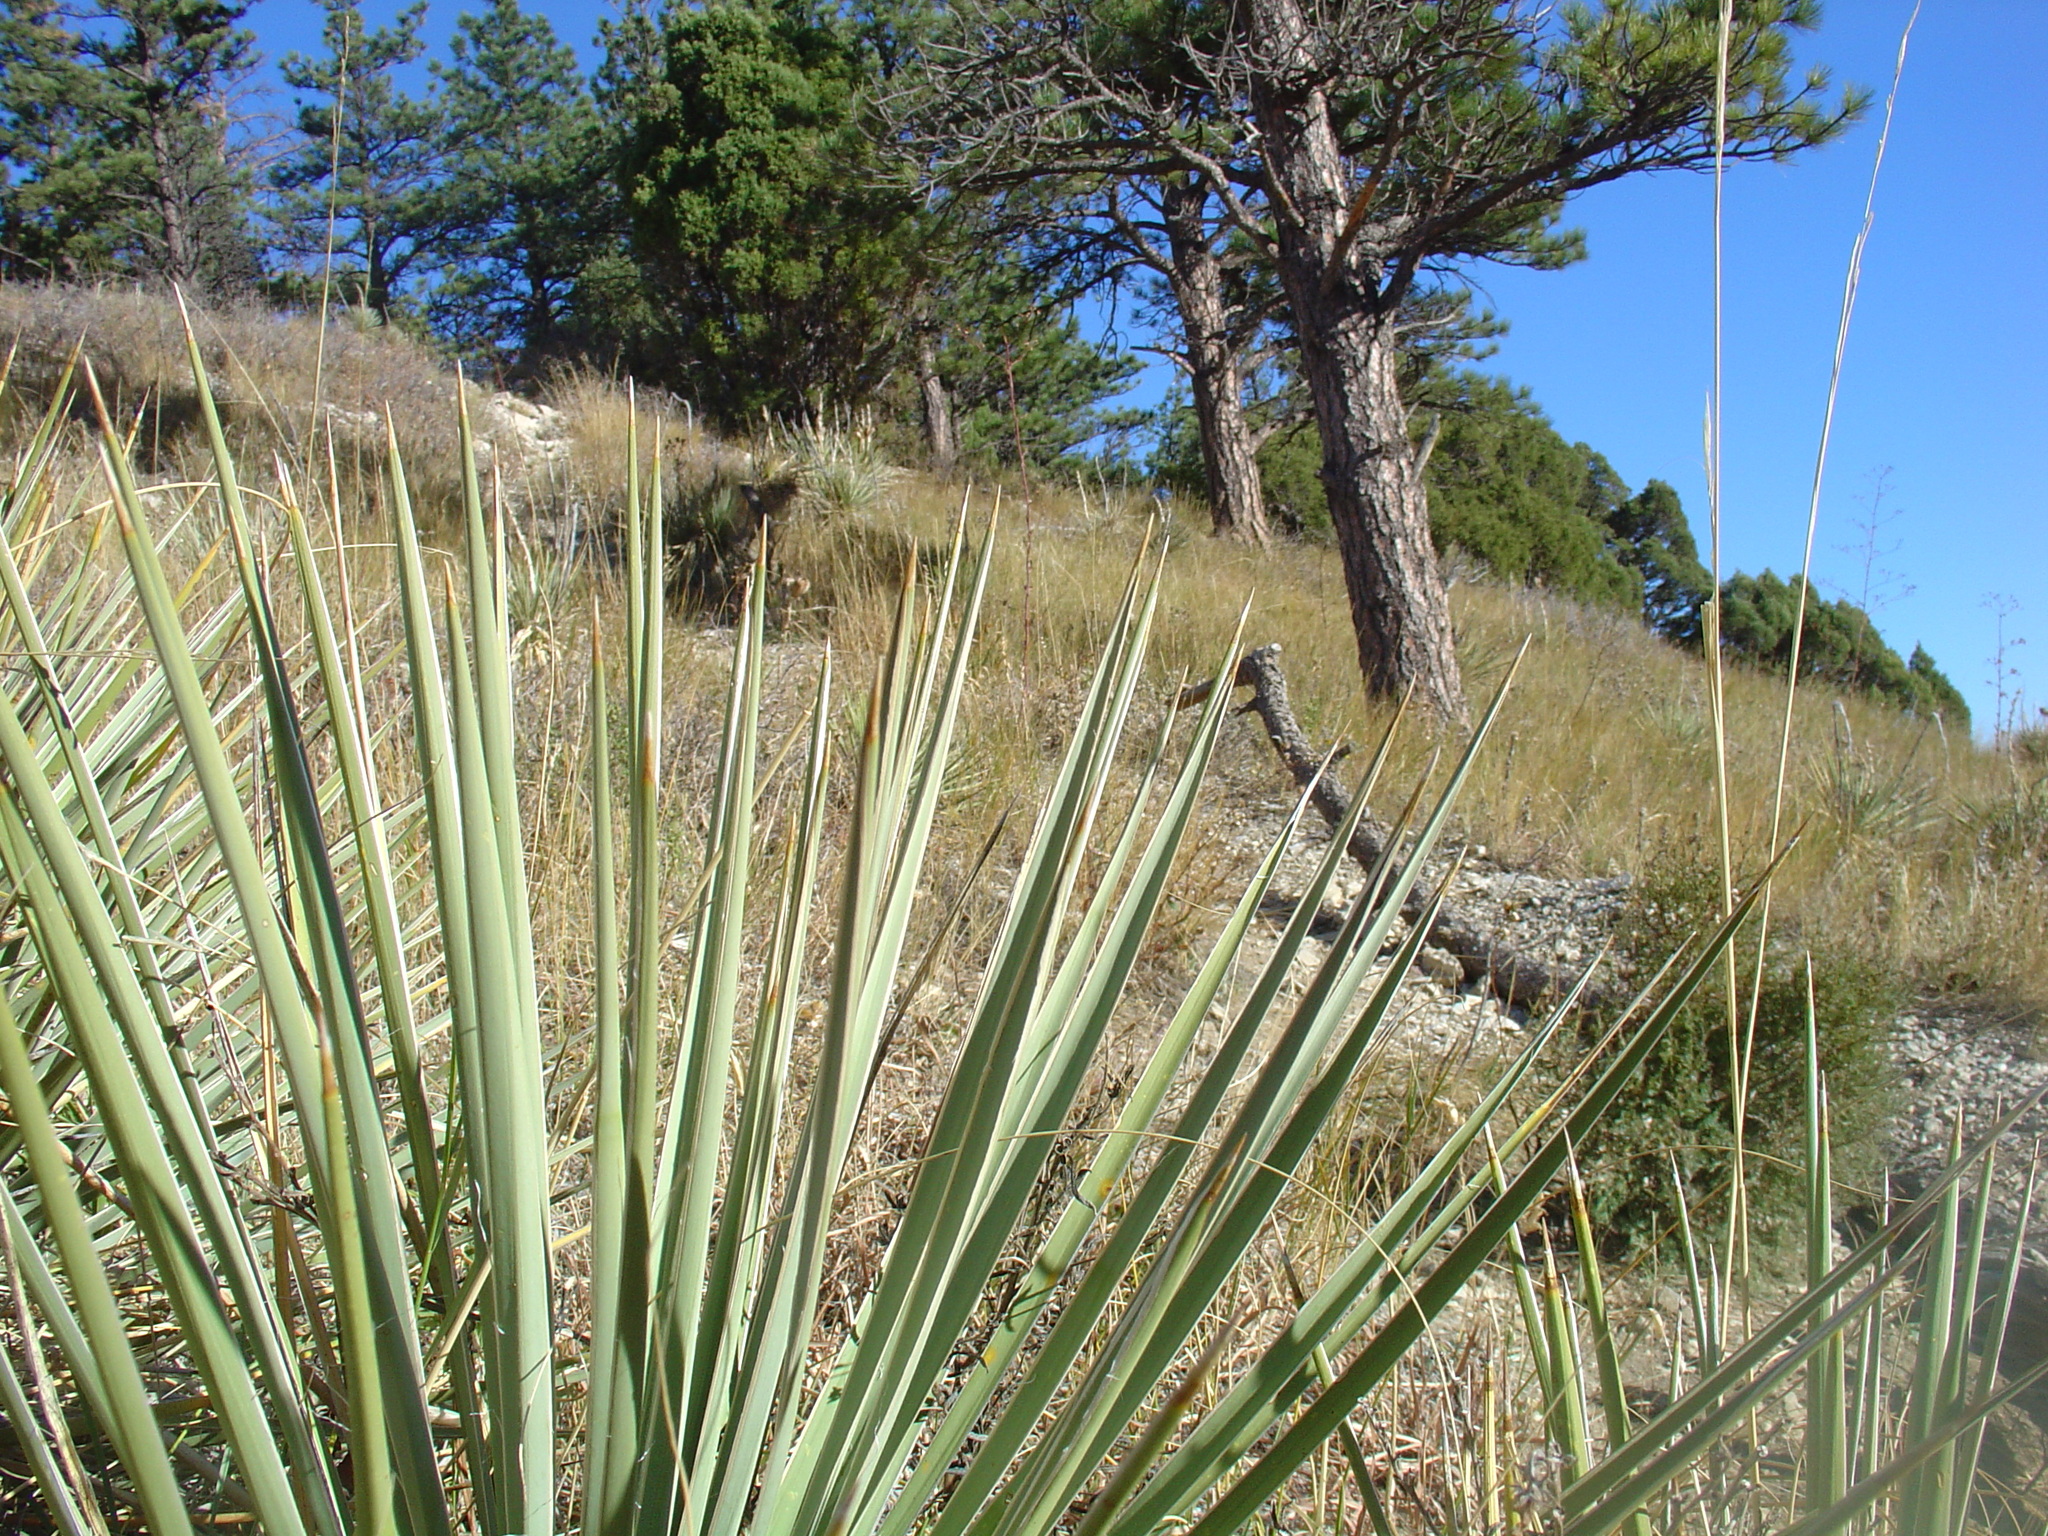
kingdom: Plantae
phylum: Tracheophyta
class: Liliopsida
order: Asparagales
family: Asparagaceae
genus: Yucca
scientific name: Yucca glauca
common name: Great plains yucca
